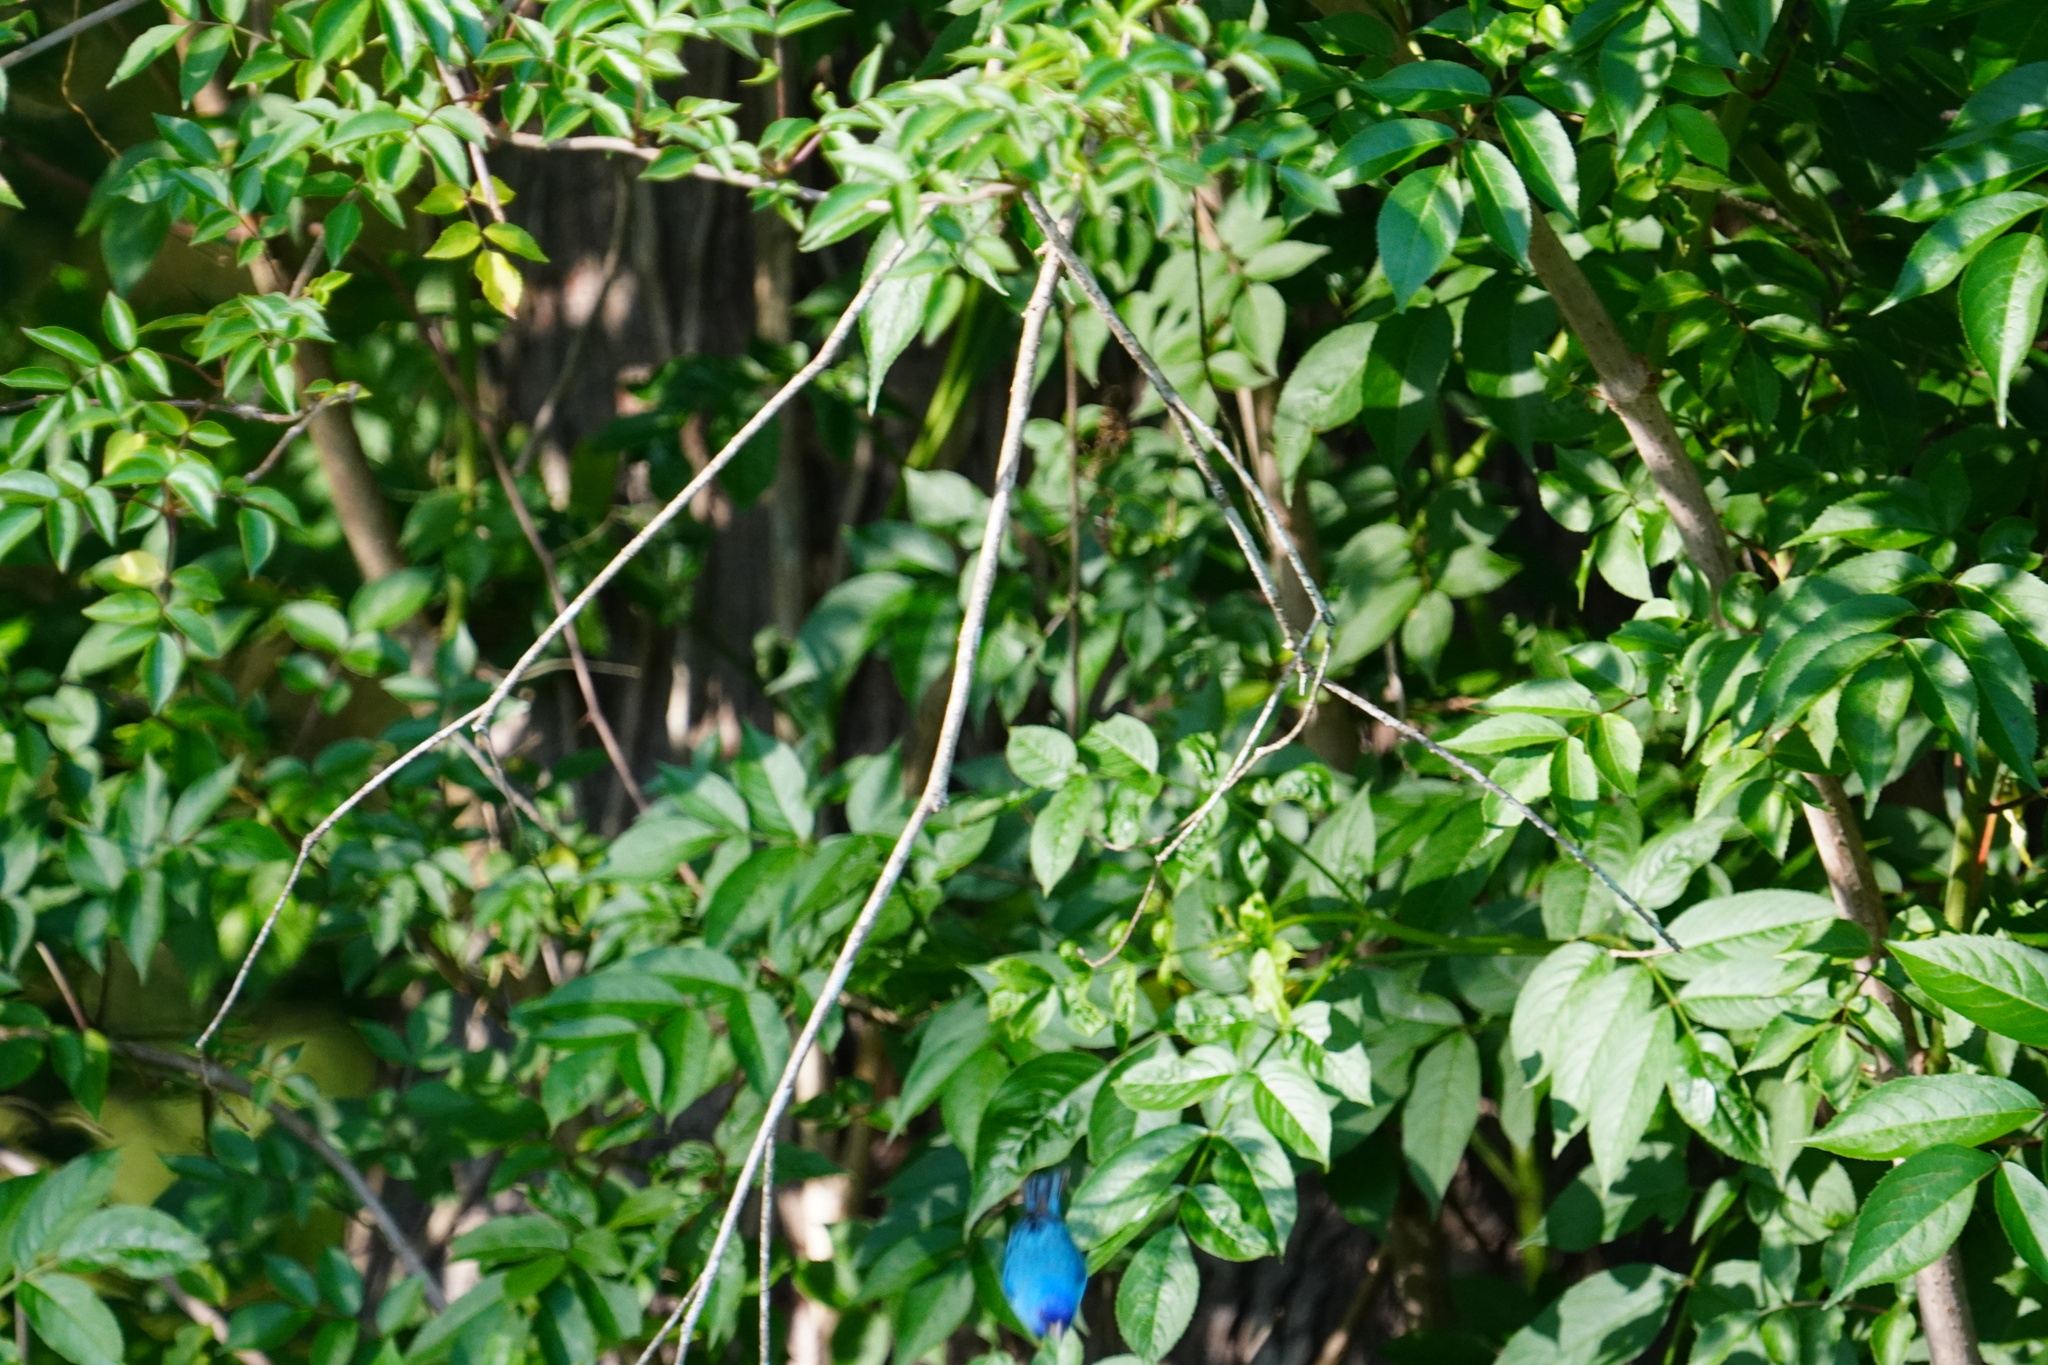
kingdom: Animalia
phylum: Chordata
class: Aves
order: Passeriformes
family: Cardinalidae
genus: Passerina
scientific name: Passerina cyanea
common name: Indigo bunting
